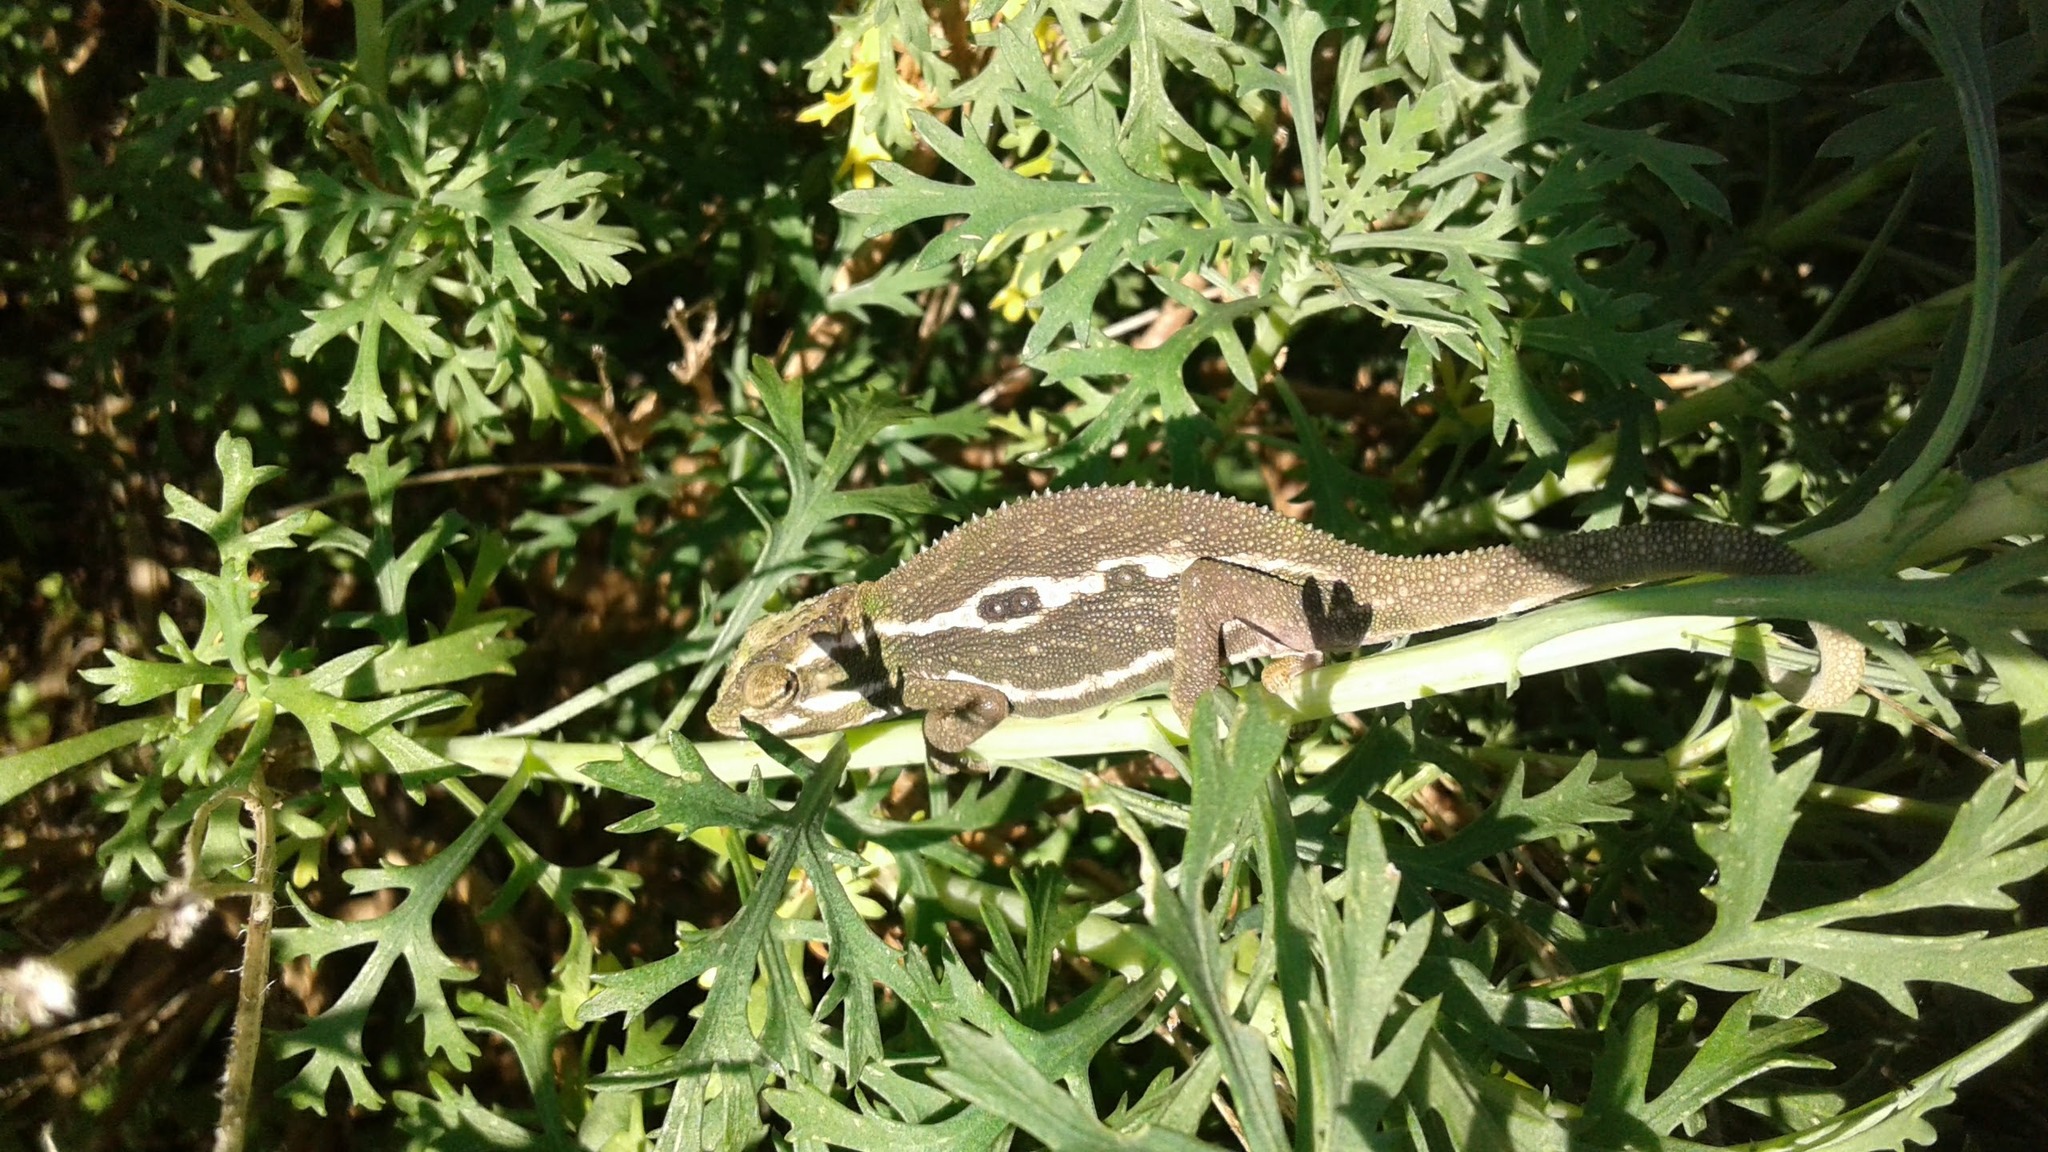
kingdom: Animalia
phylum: Chordata
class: Squamata
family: Chamaeleonidae
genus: Bradypodion
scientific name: Bradypodion pumilum
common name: Cape dwarf chameleon
